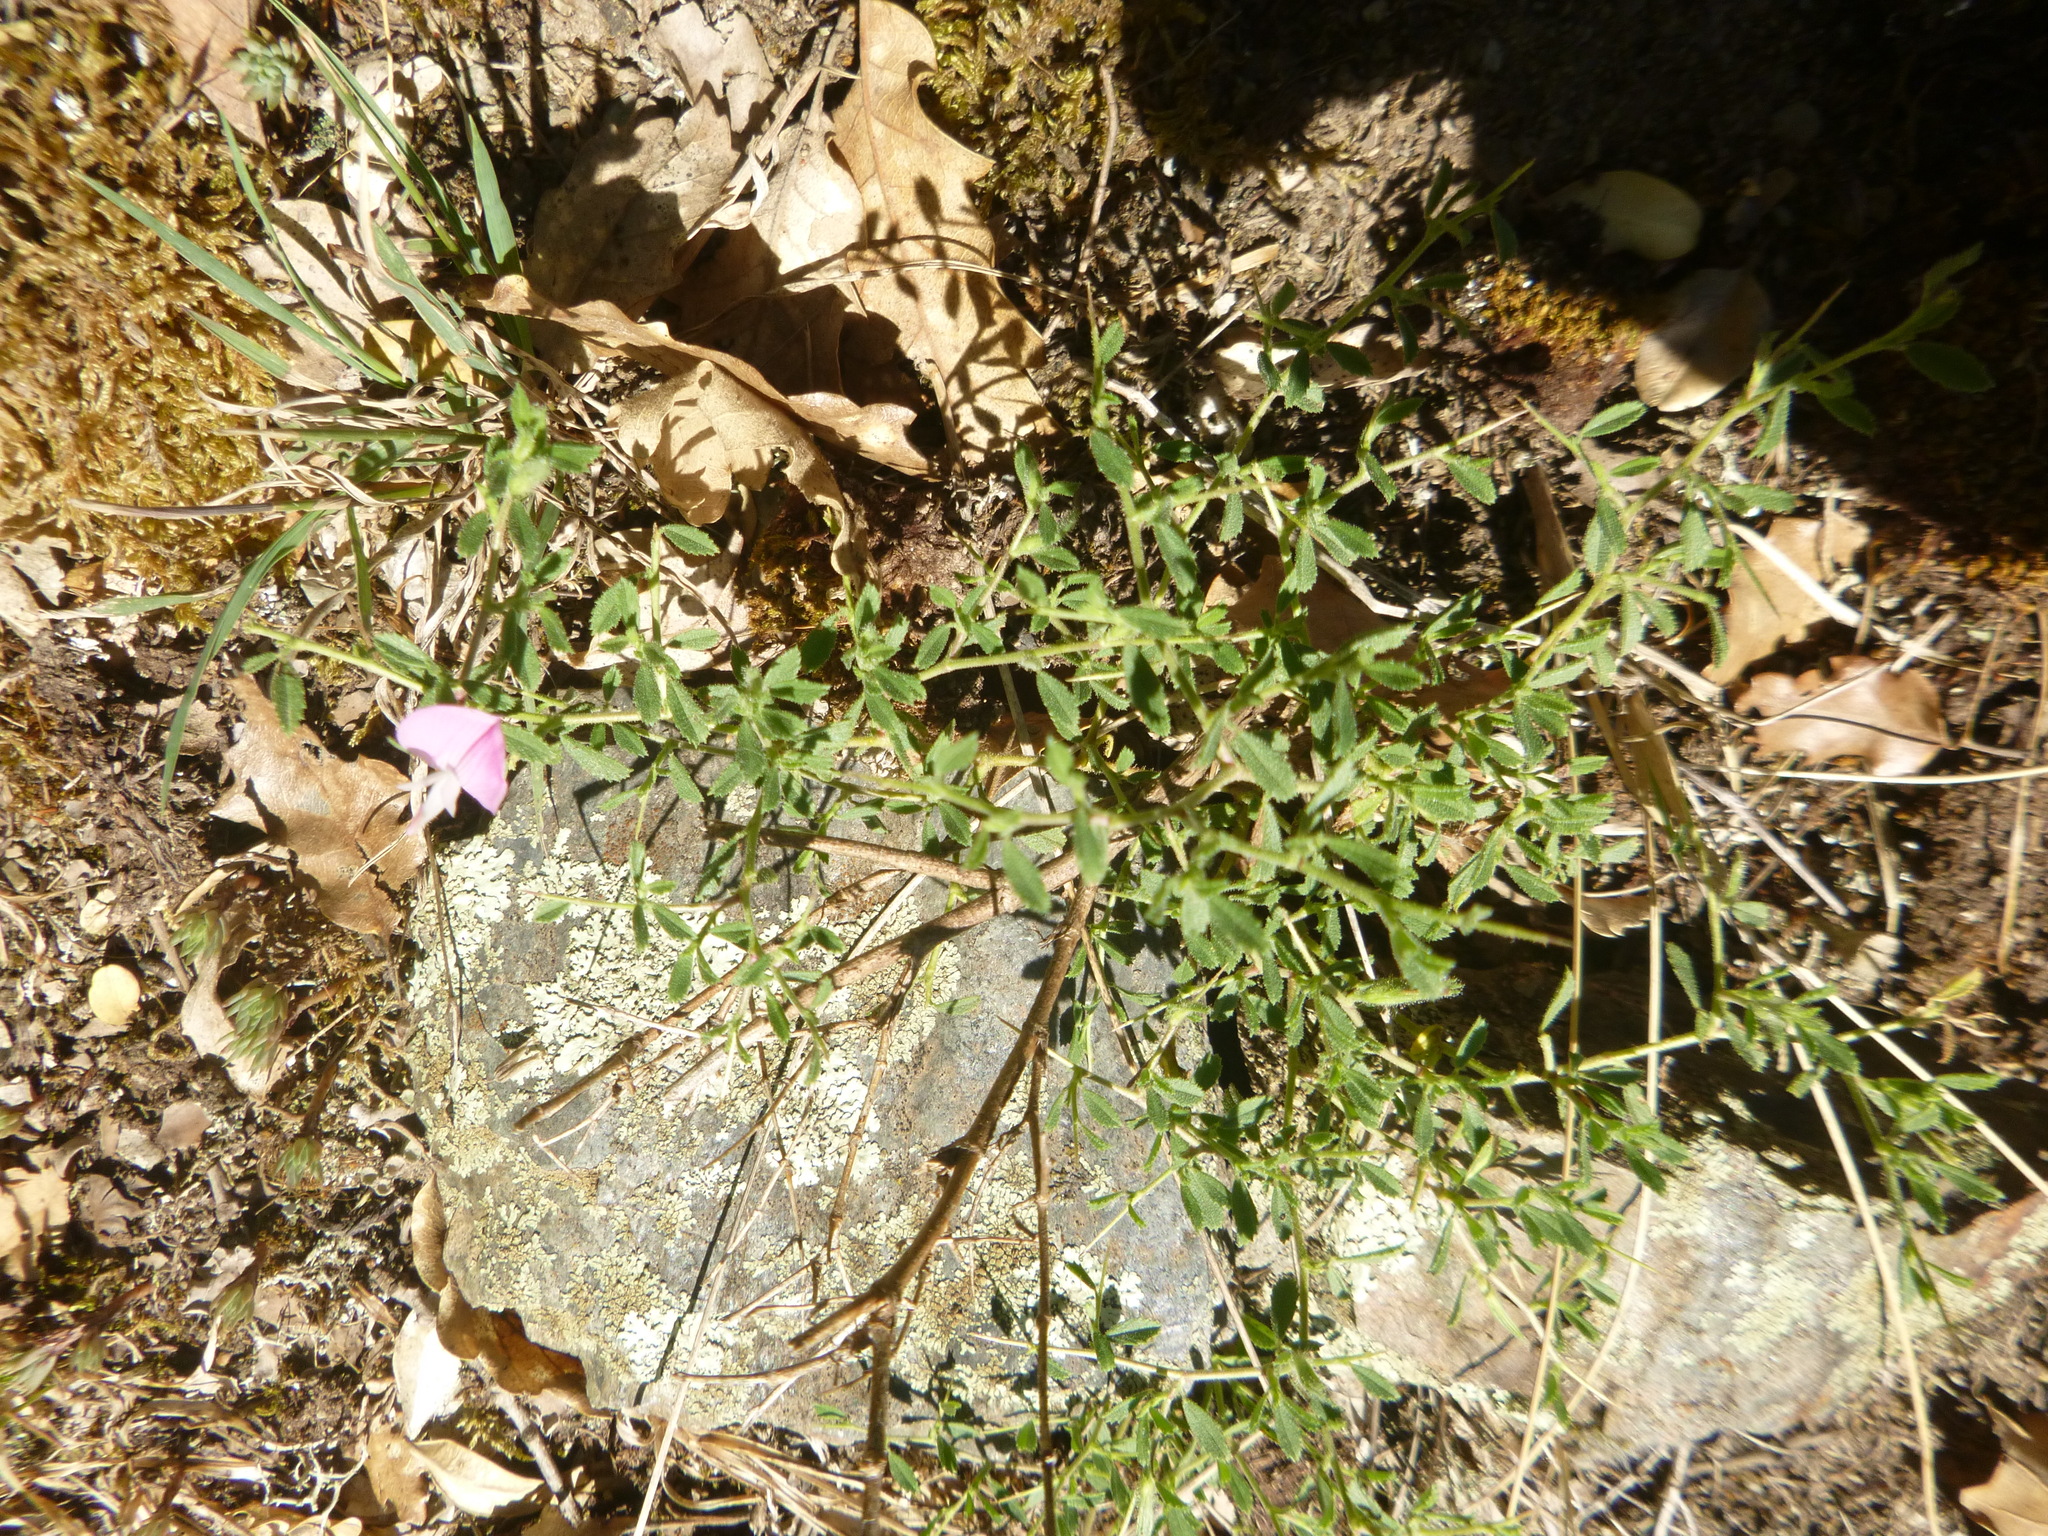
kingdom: Plantae
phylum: Tracheophyta
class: Magnoliopsida
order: Fabales
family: Fabaceae
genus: Ononis
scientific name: Ononis spinosa
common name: Spiny restharrow
